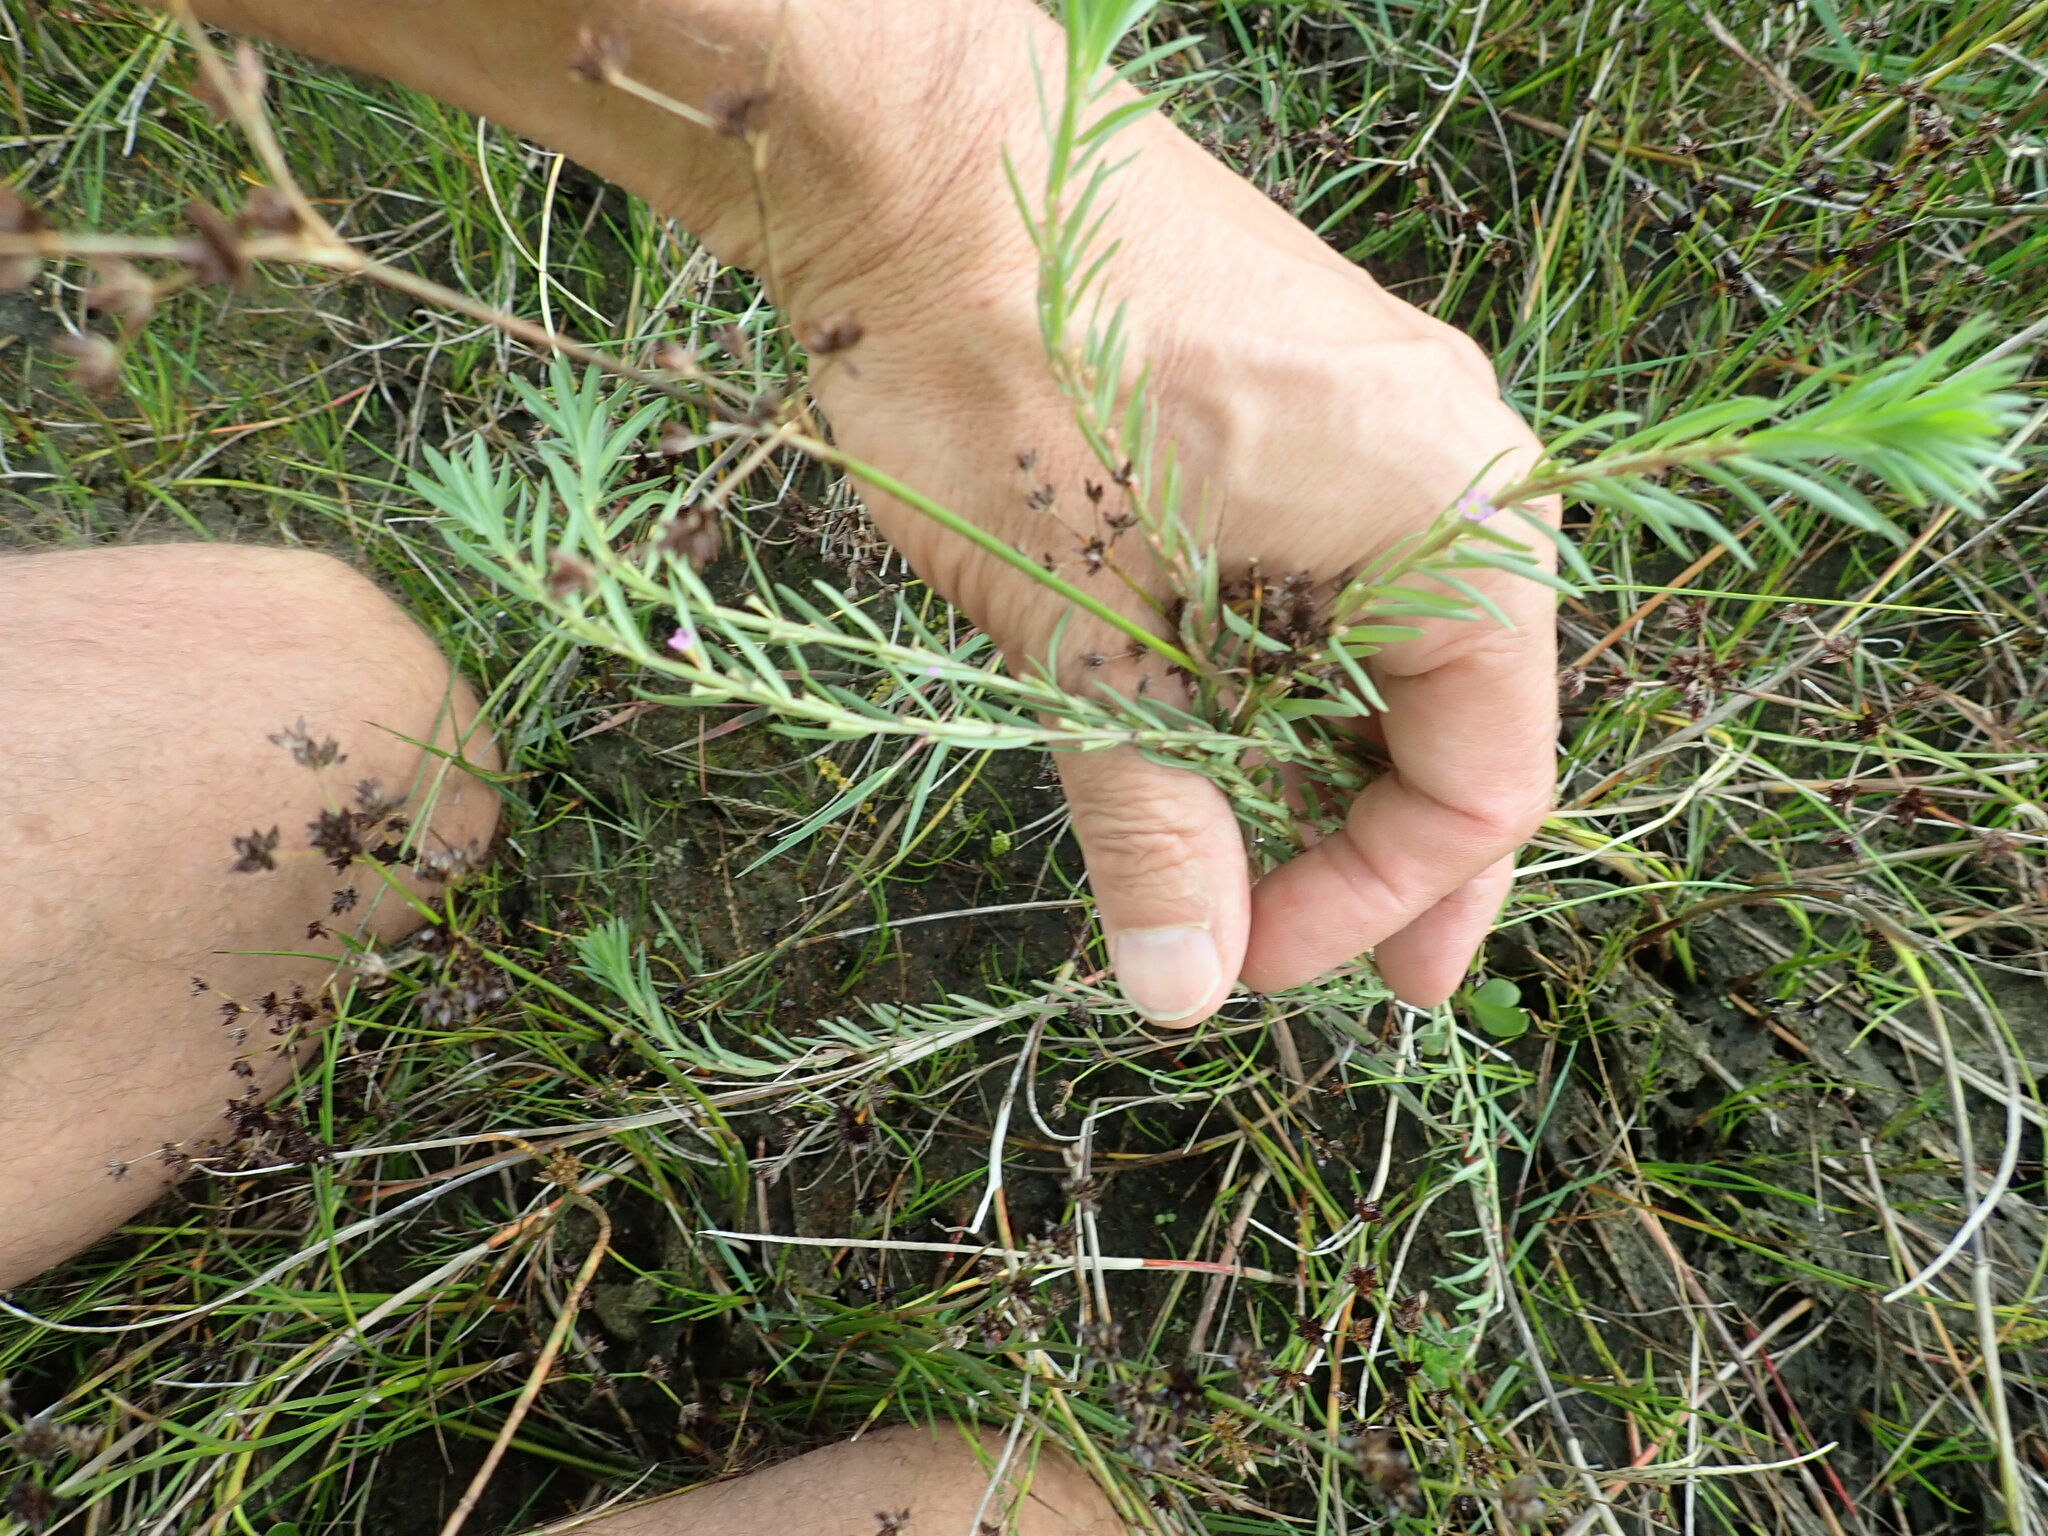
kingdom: Plantae
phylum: Tracheophyta
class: Magnoliopsida
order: Myrtales
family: Lythraceae
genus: Lythrum
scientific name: Lythrum hyssopifolia
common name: Grass-poly
